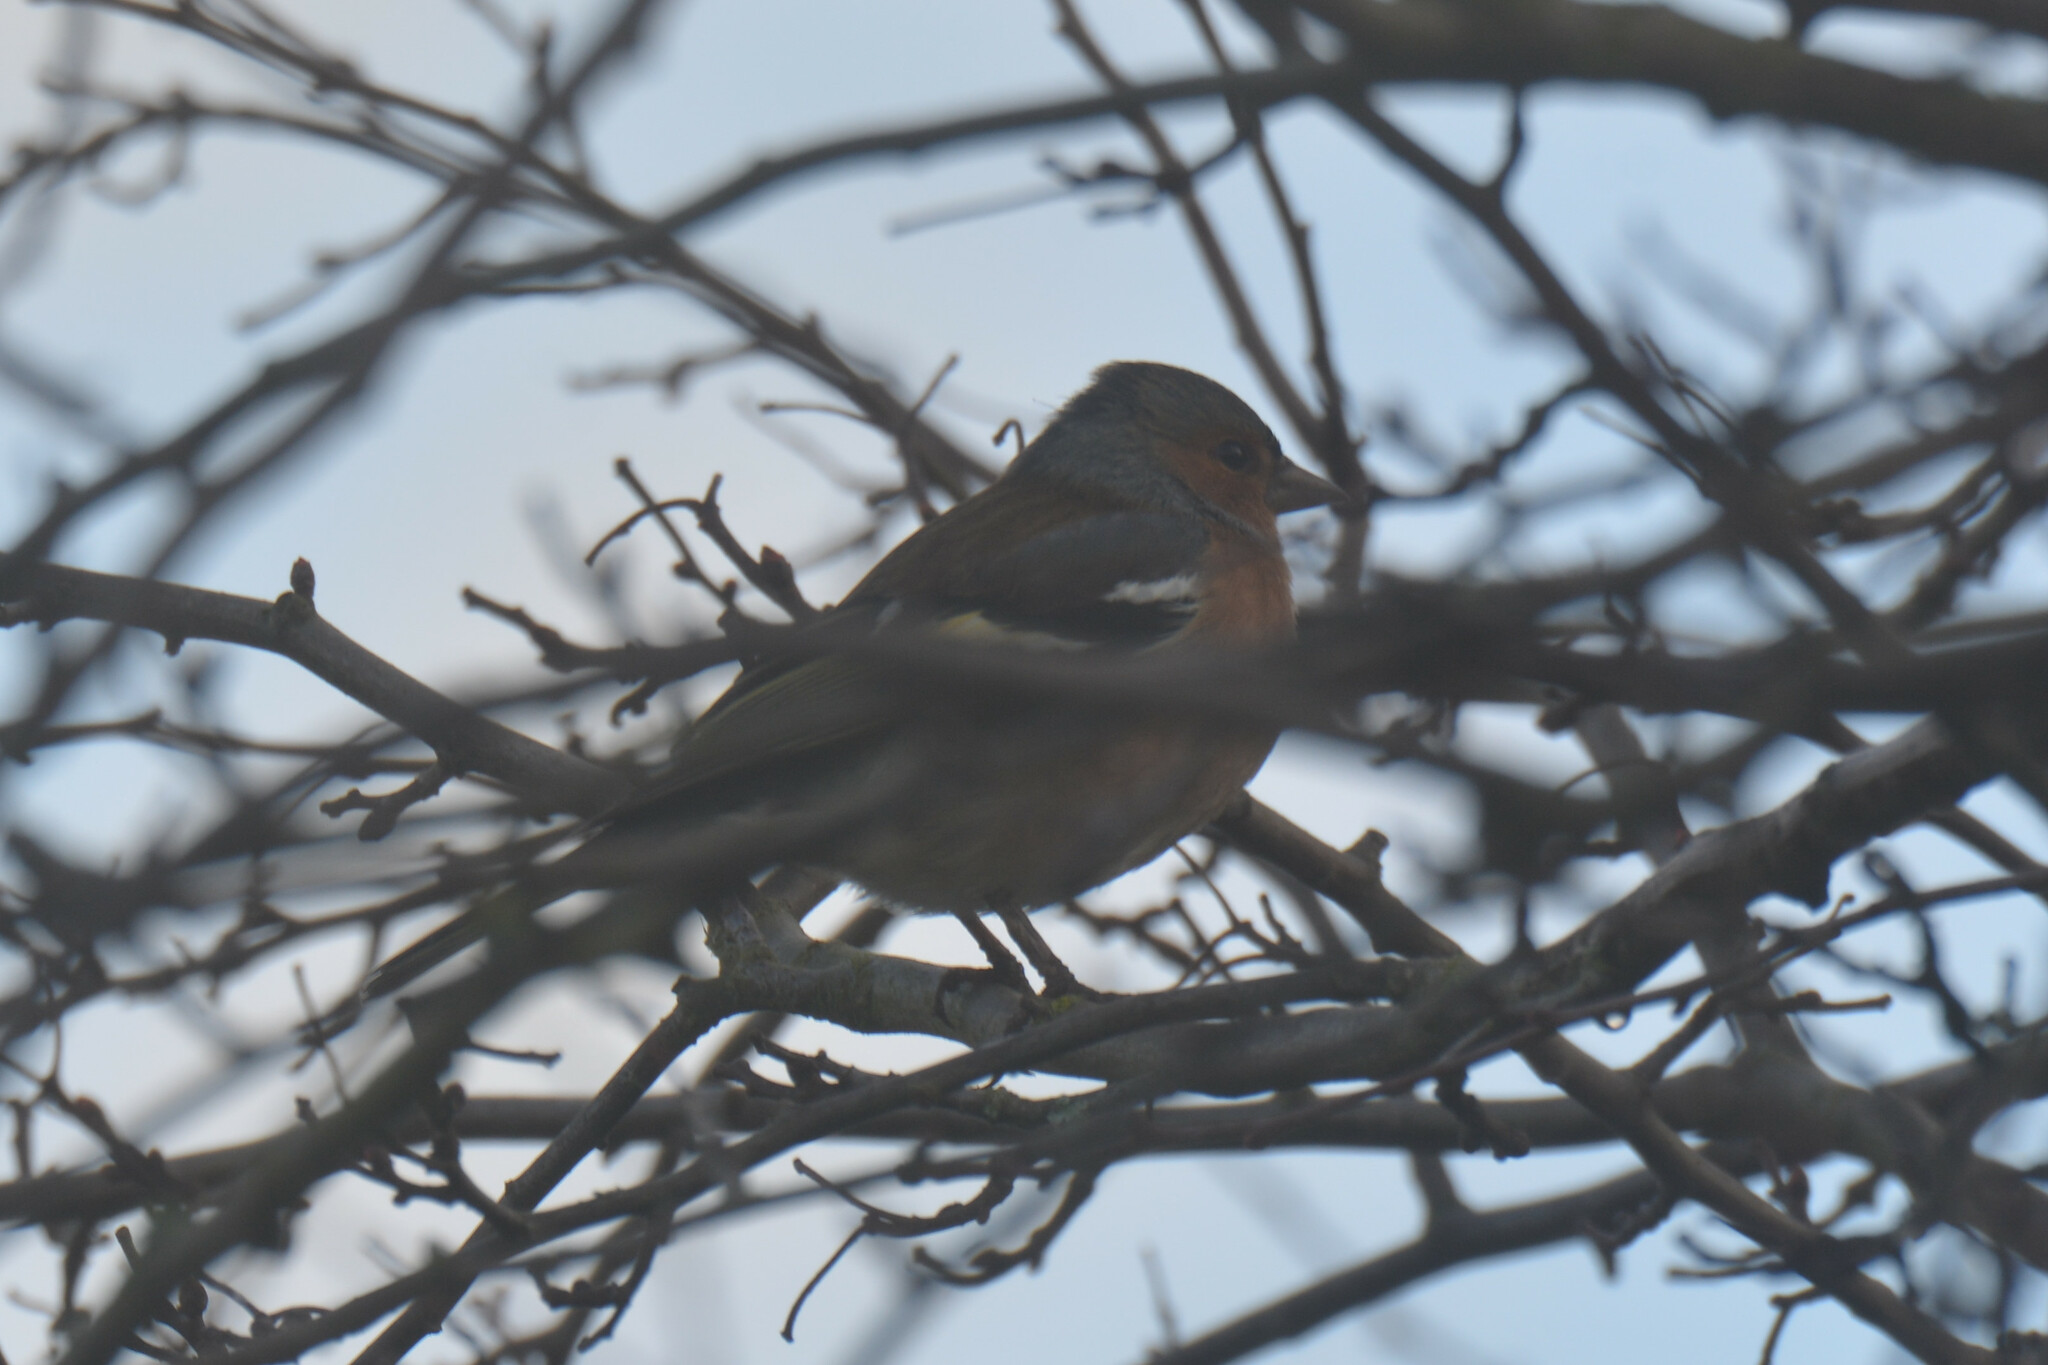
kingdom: Animalia
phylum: Chordata
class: Aves
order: Passeriformes
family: Fringillidae
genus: Fringilla
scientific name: Fringilla coelebs
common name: Common chaffinch
